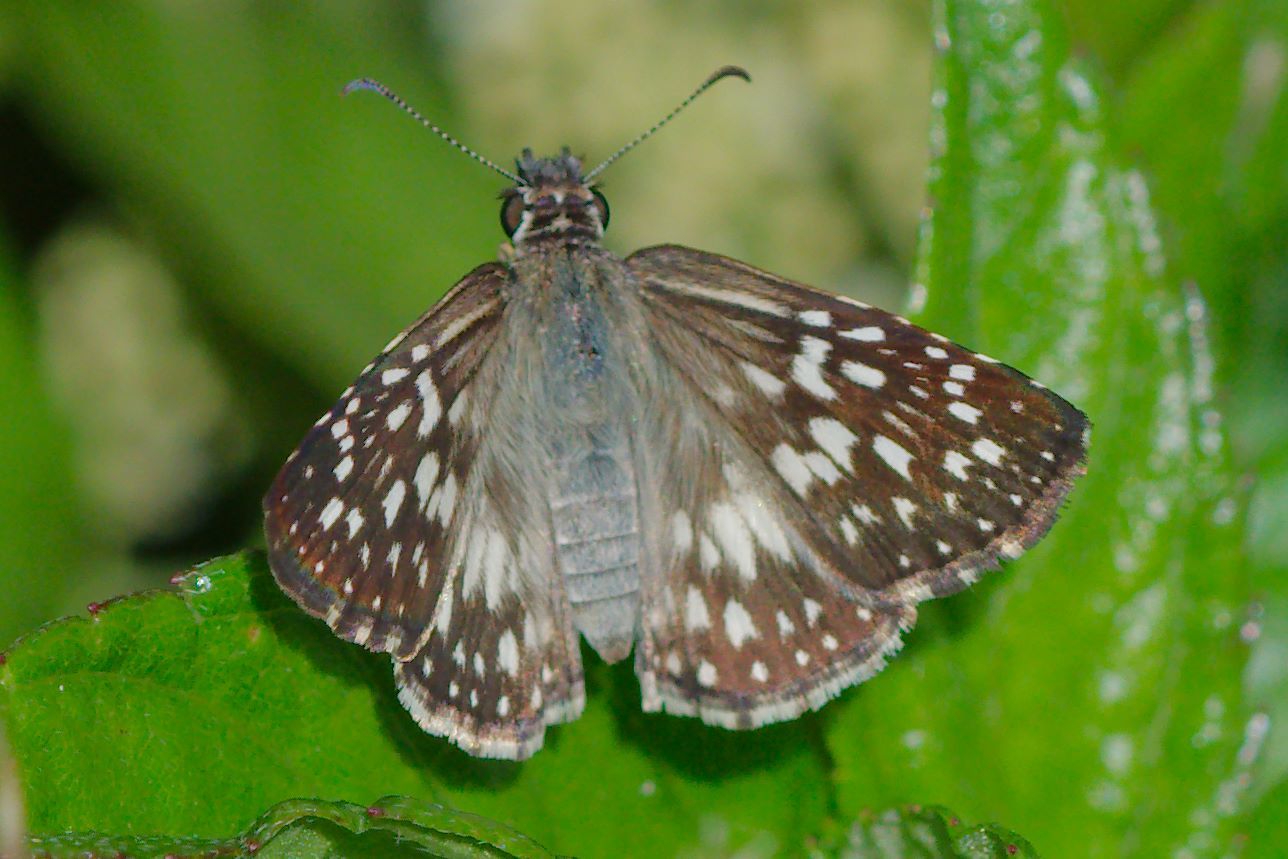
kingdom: Animalia
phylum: Arthropoda
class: Insecta
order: Lepidoptera
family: Hesperiidae
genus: Pyrgus
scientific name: Pyrgus oileus
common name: Tropical checkered-skipper
